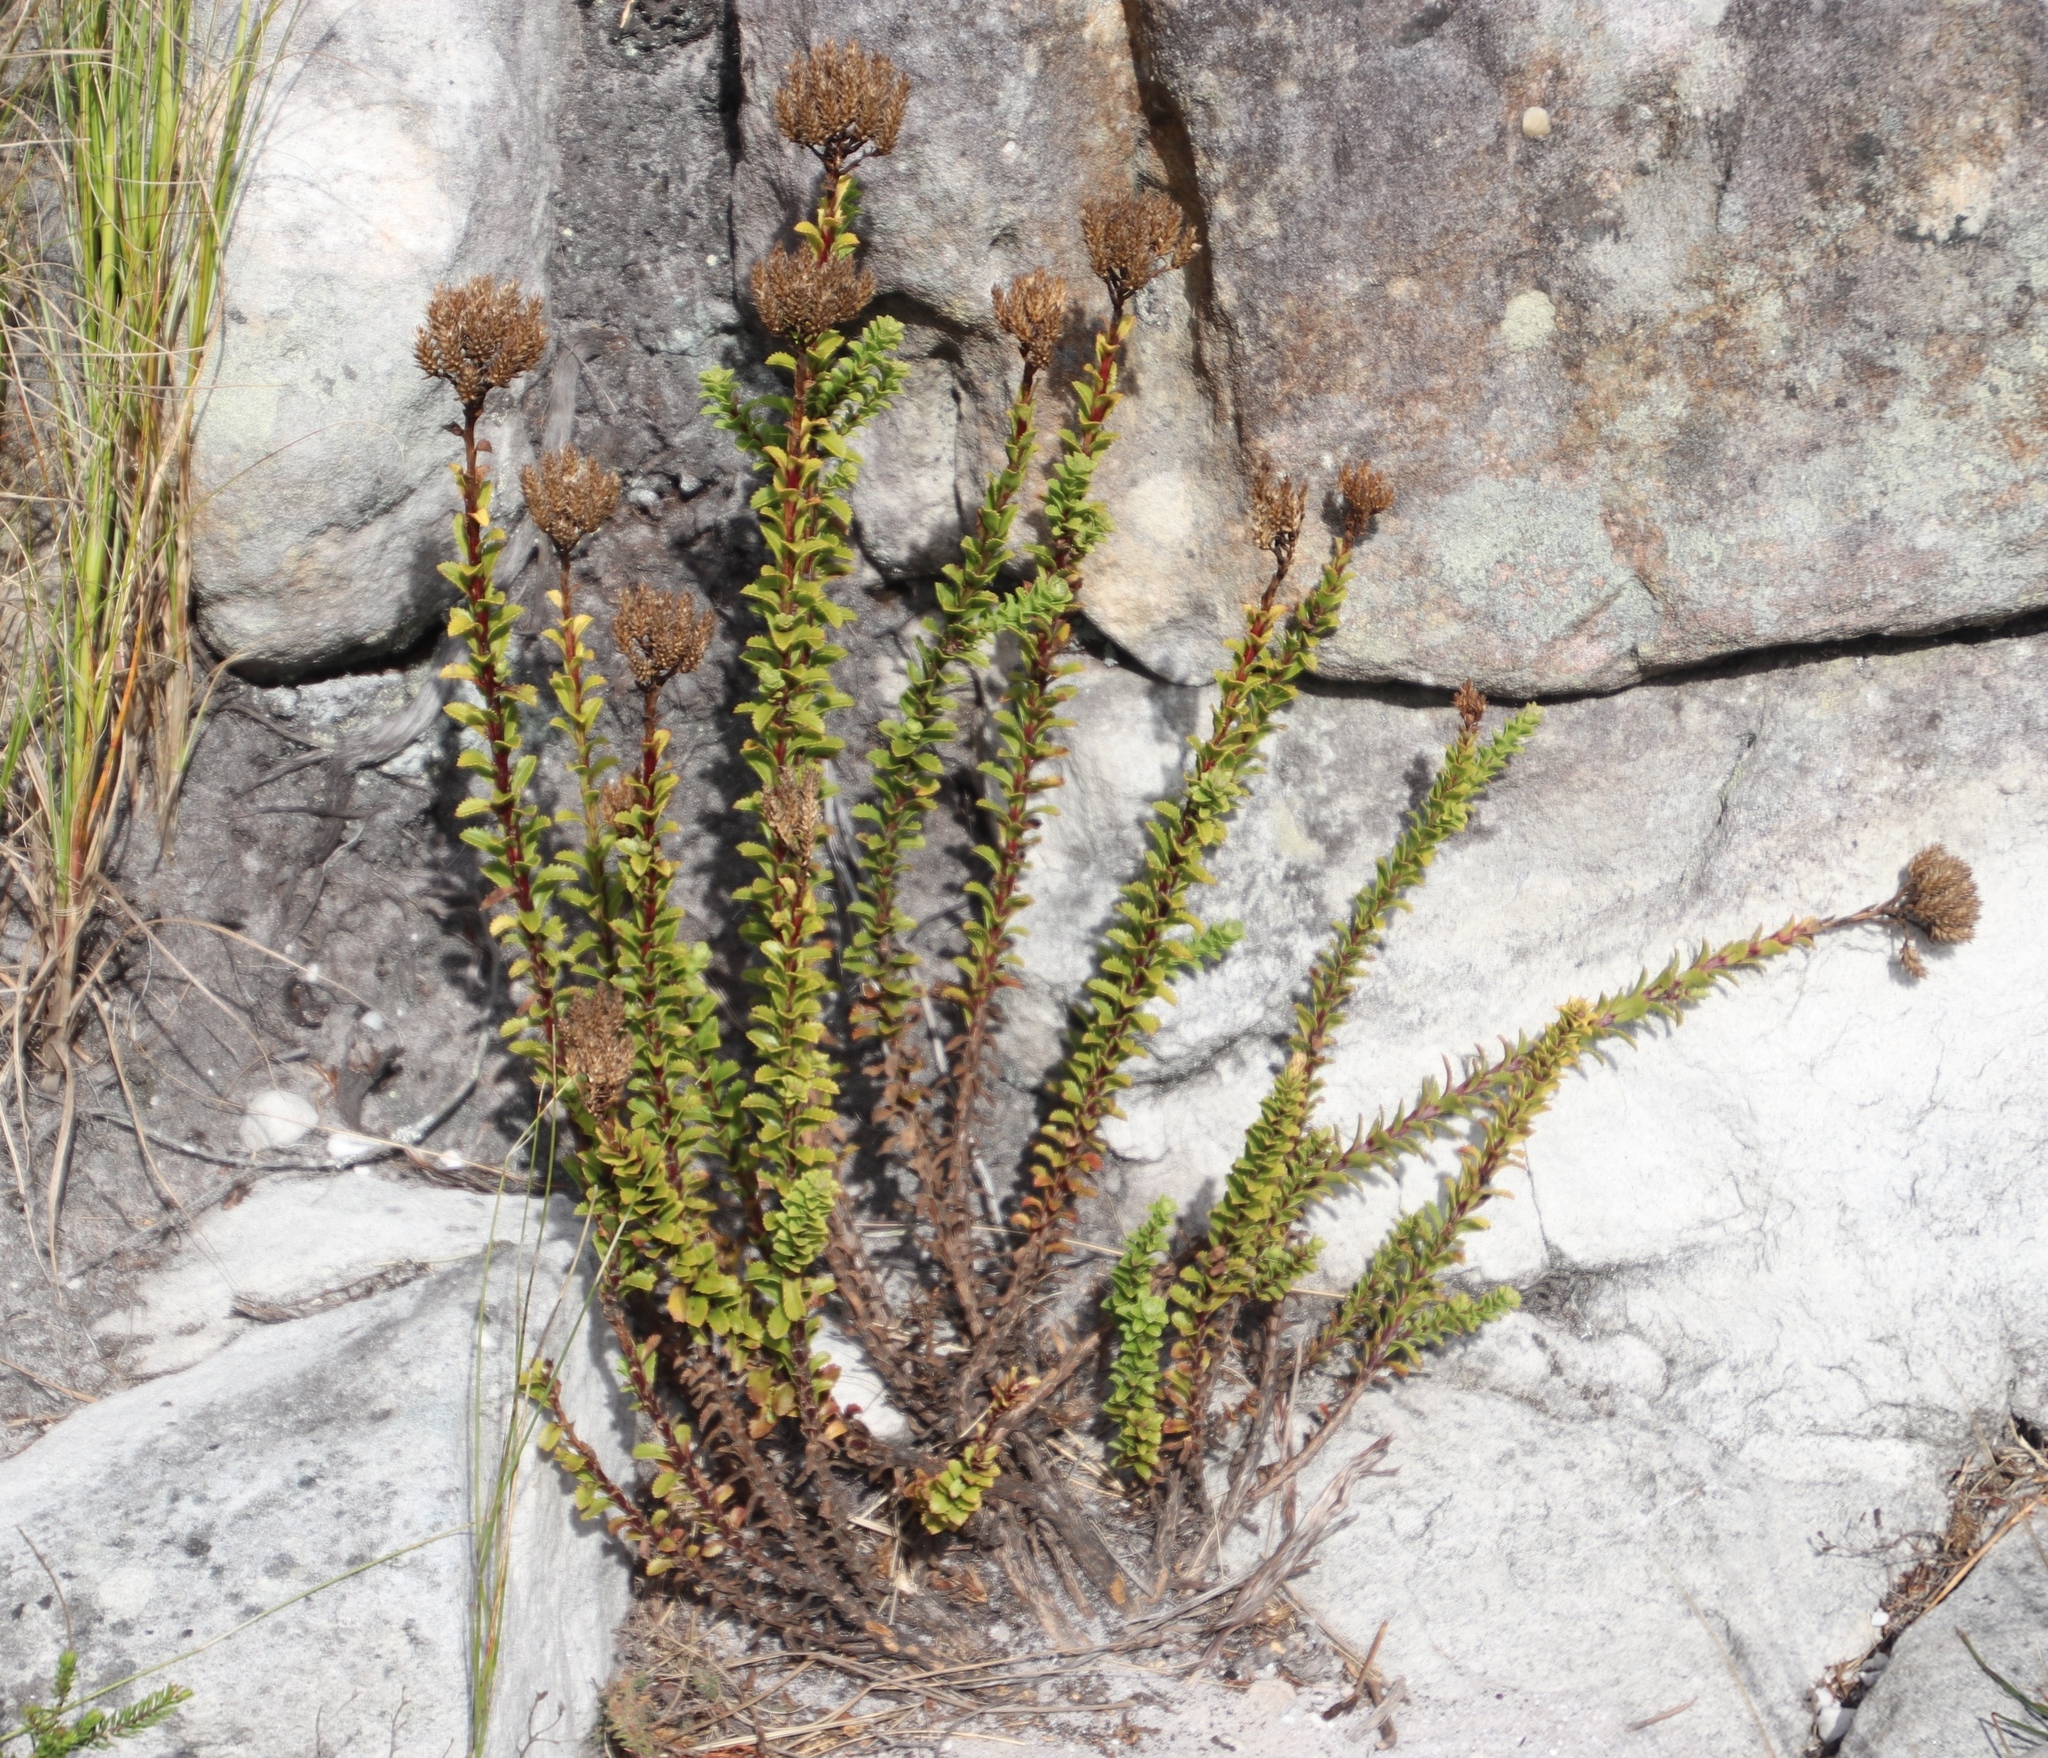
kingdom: Plantae
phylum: Tracheophyta
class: Magnoliopsida
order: Lamiales
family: Scrophulariaceae
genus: Pseudoselago
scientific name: Pseudoselago serrata
